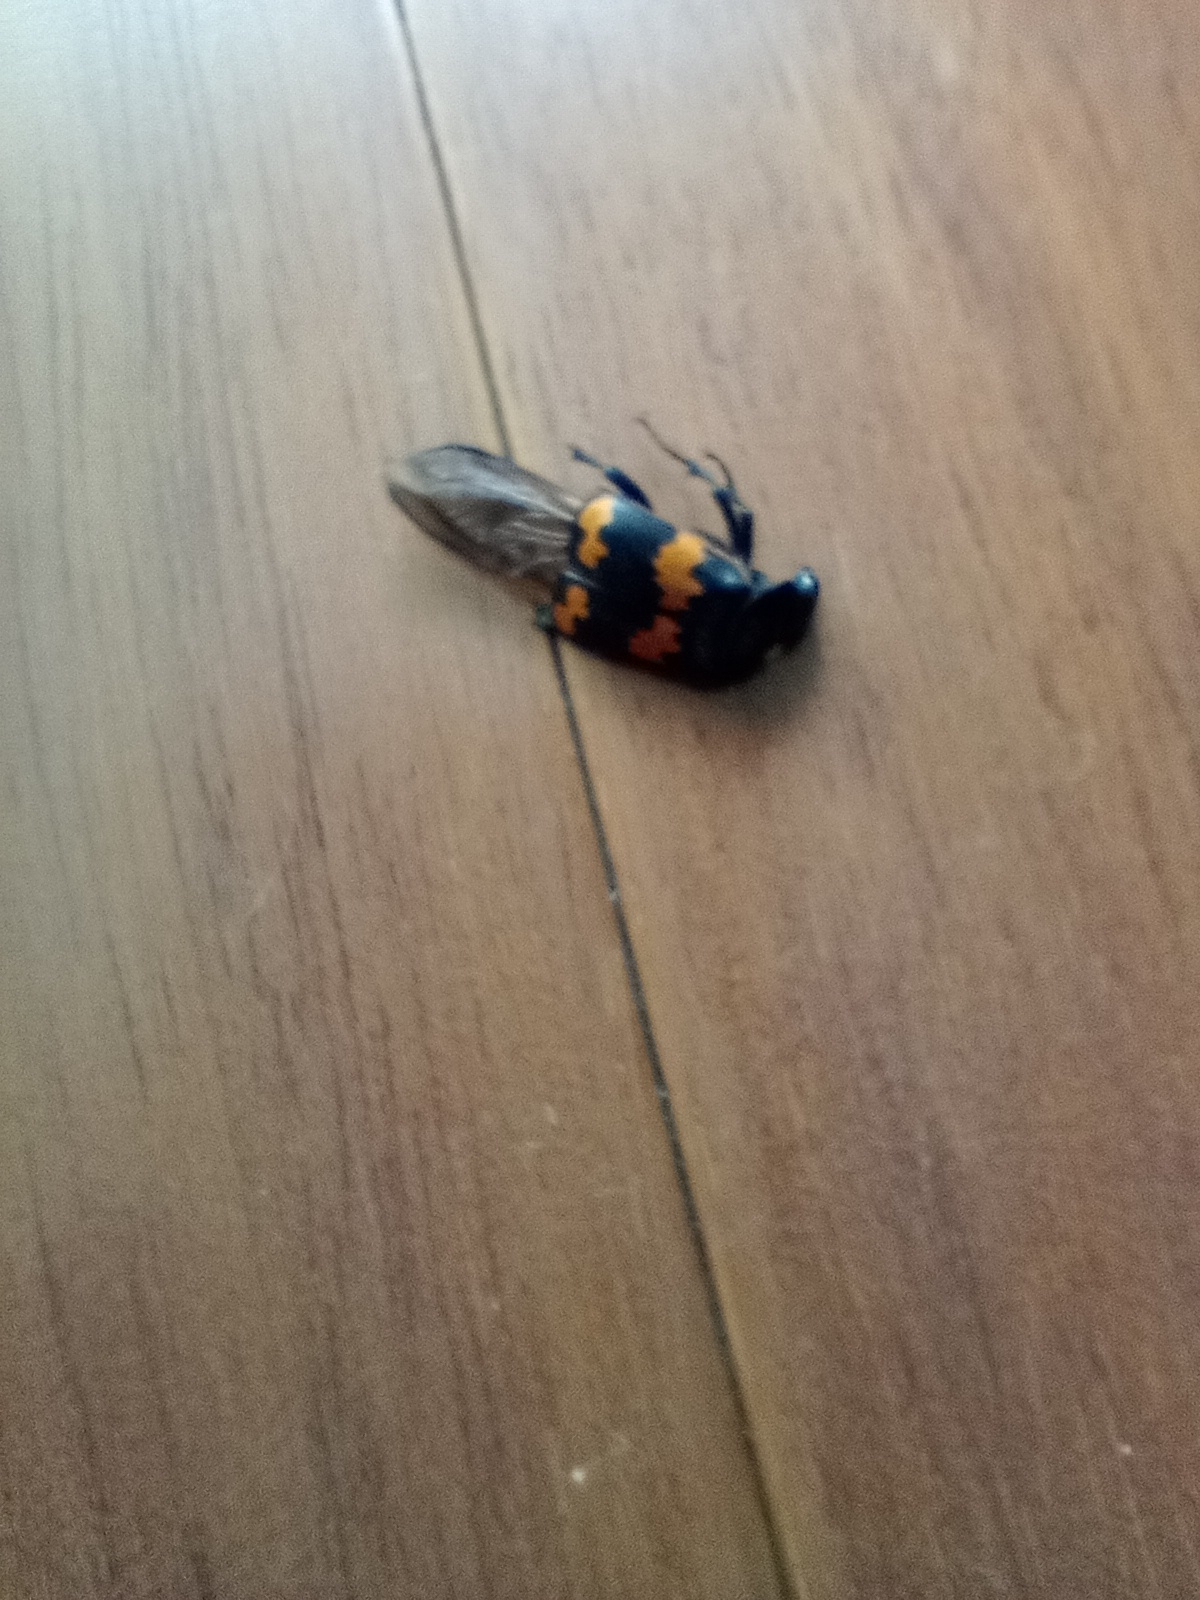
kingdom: Animalia
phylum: Arthropoda
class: Insecta
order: Coleoptera
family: Staphylinidae
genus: Nicrophorus
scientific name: Nicrophorus mexicanus
